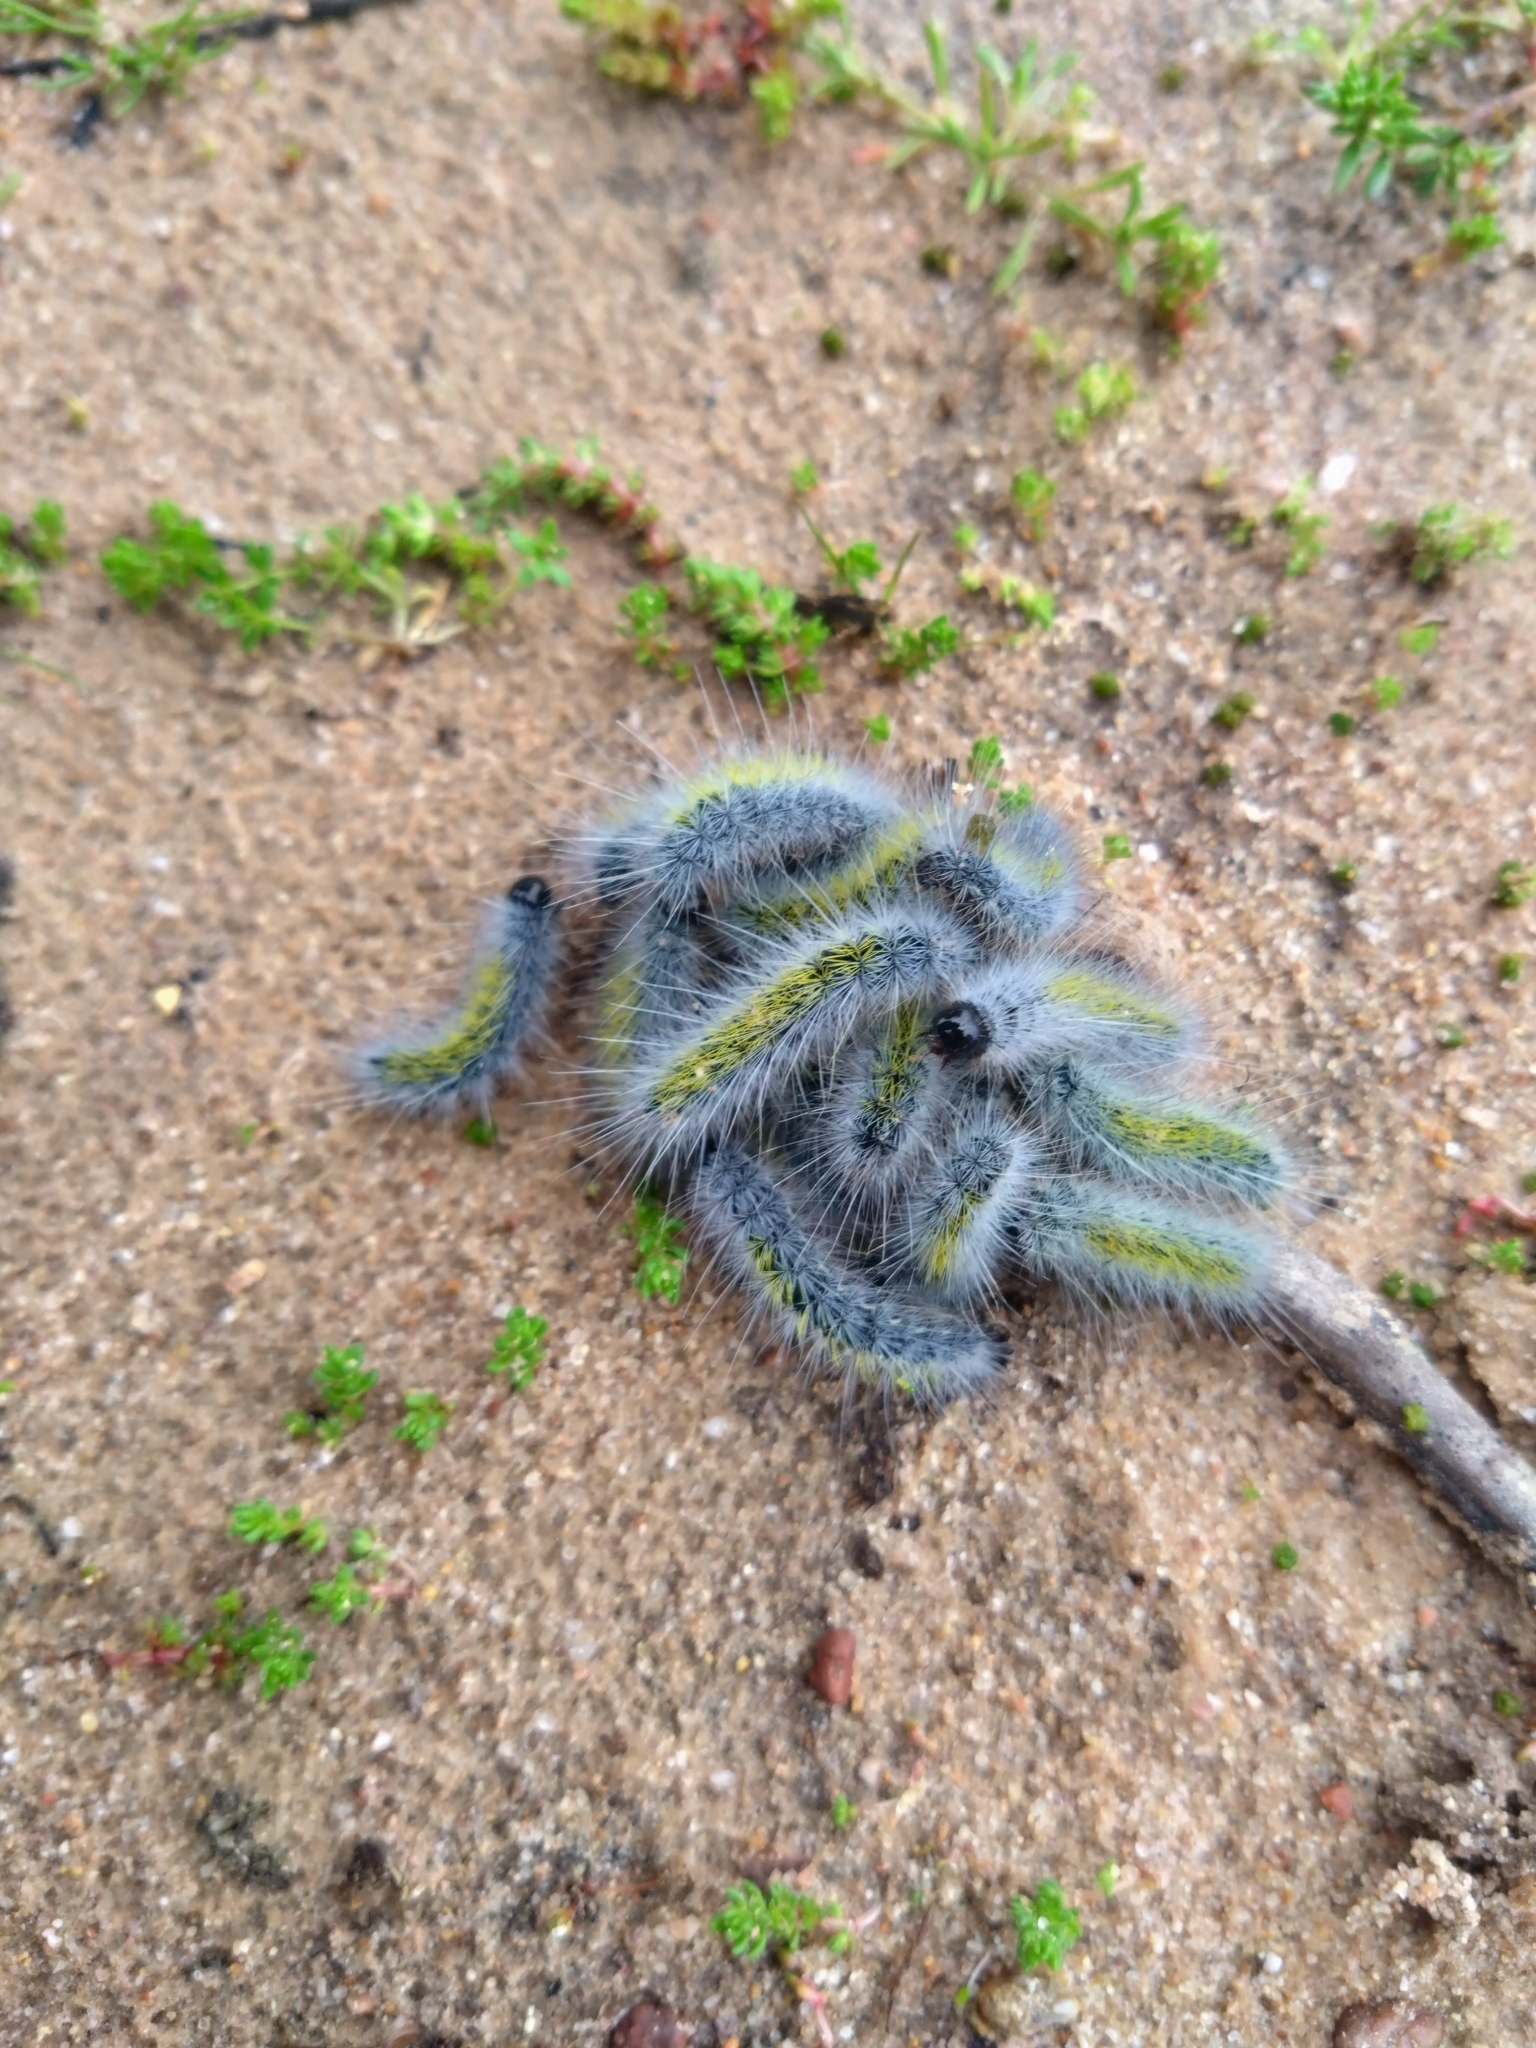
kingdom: Animalia
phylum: Arthropoda
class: Insecta
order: Lepidoptera
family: Notodontidae
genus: Thaumetopoea
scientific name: Thaumetopoea herculeana
